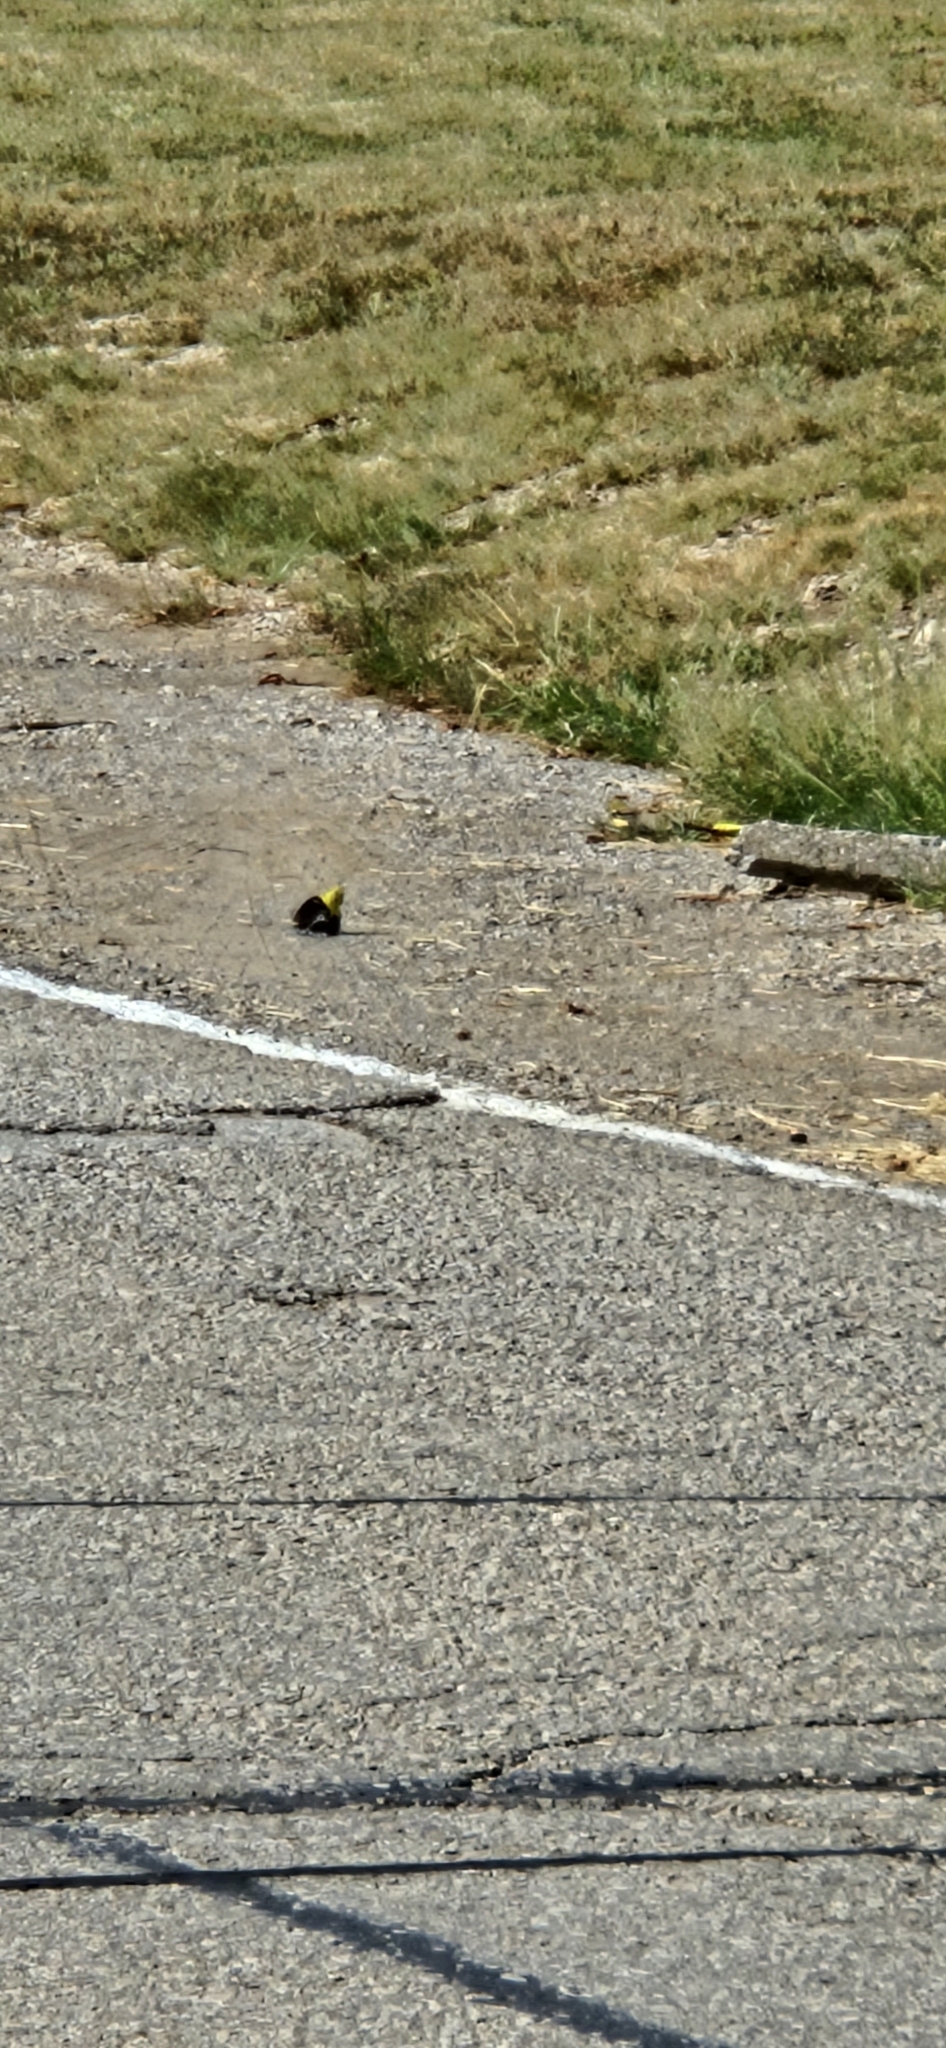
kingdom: Animalia
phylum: Chordata
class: Aves
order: Passeriformes
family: Fringillidae
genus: Spinus
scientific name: Spinus tristis
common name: American goldfinch
